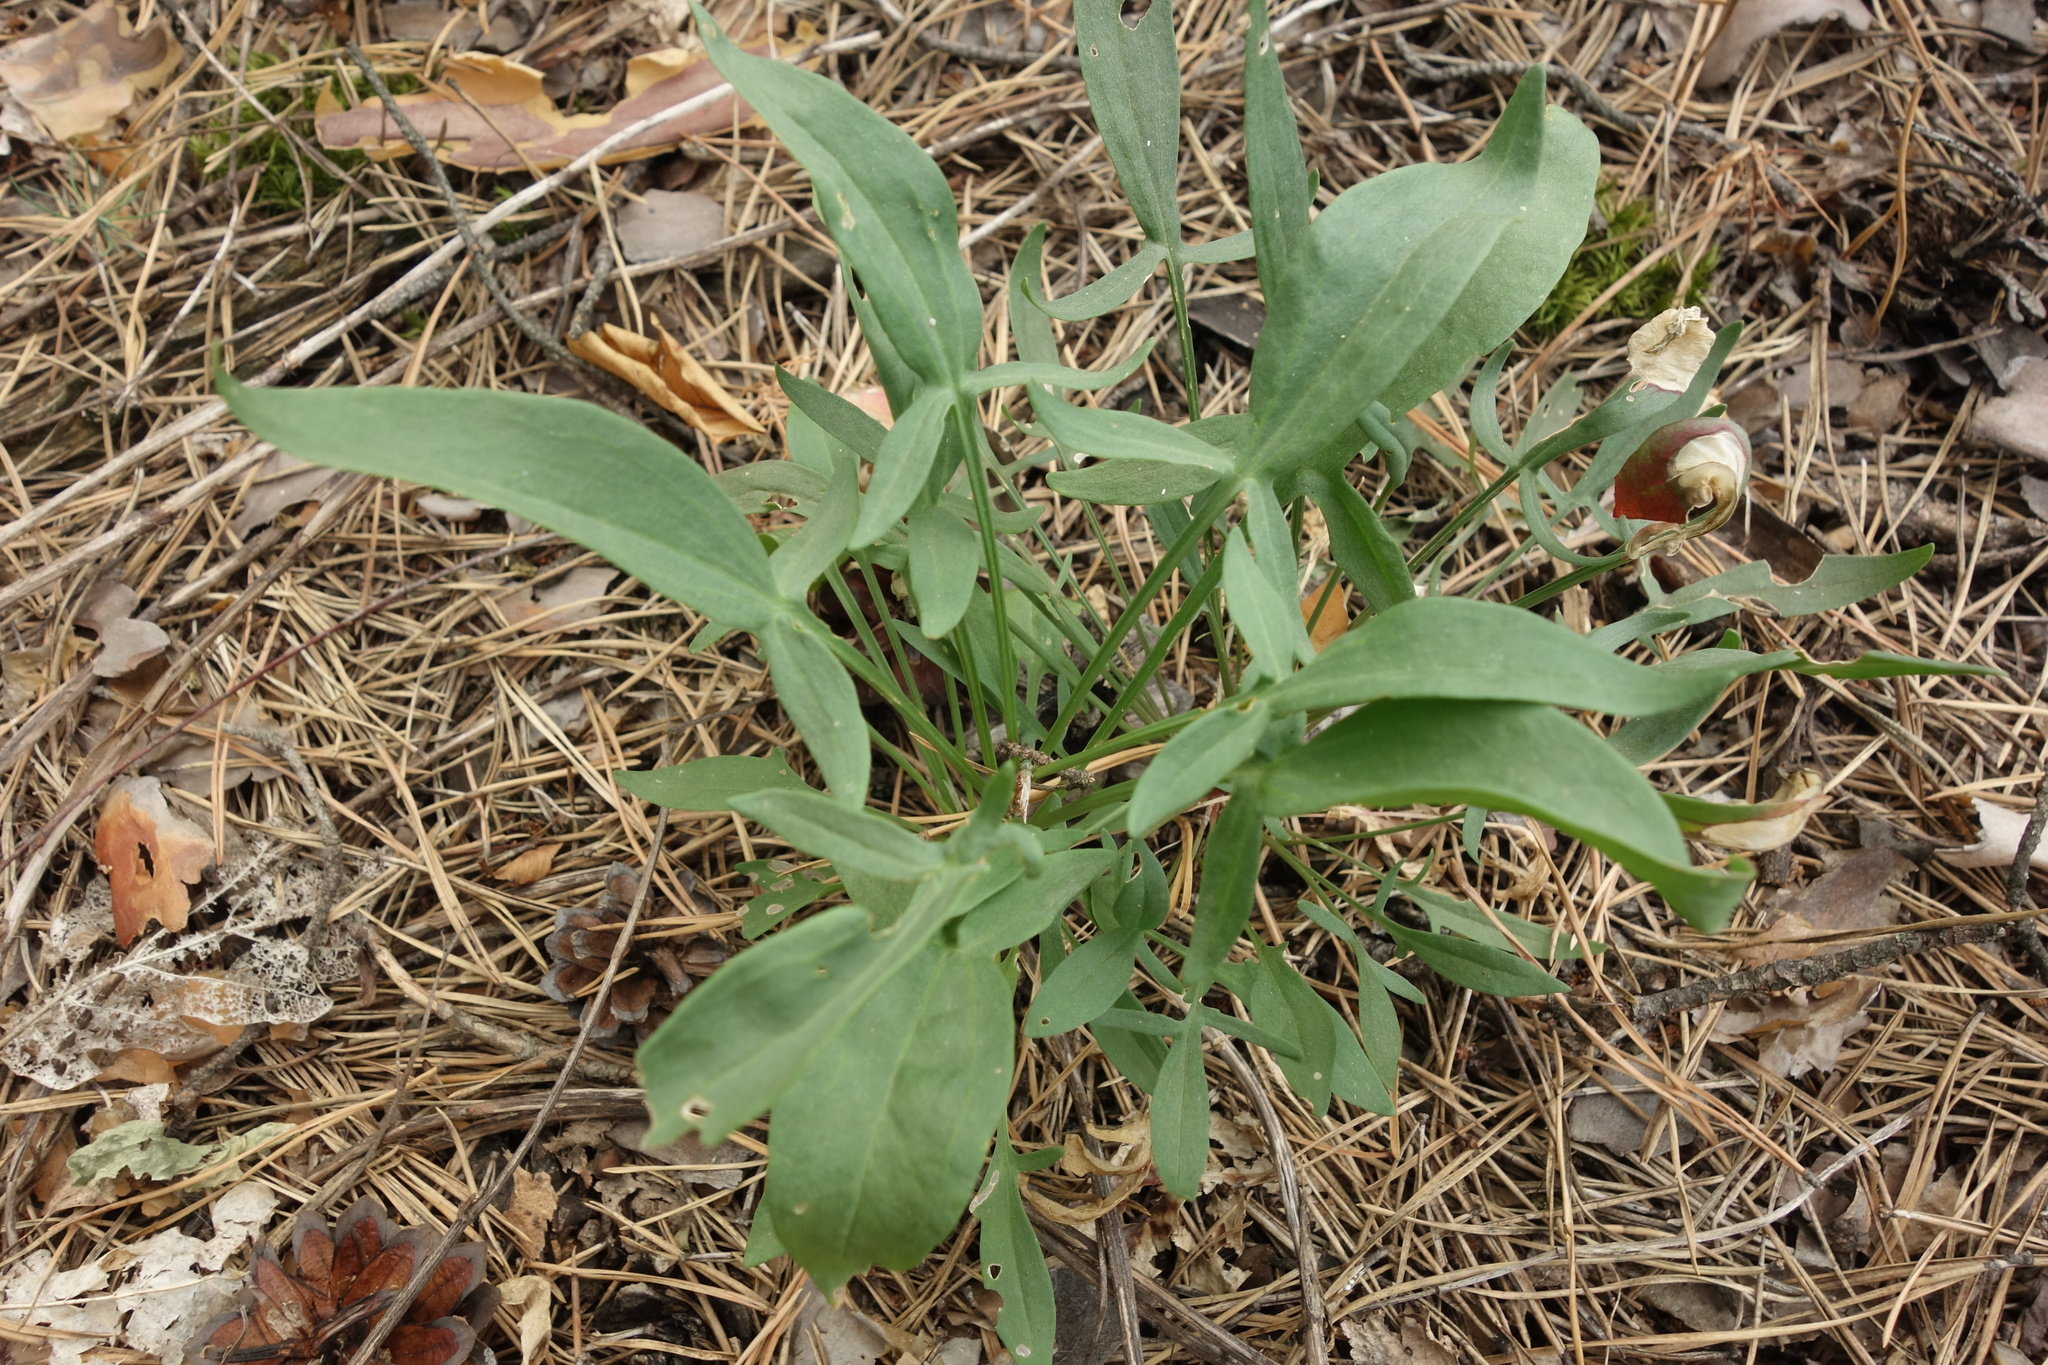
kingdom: Plantae
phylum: Tracheophyta
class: Magnoliopsida
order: Caryophyllales
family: Polygonaceae
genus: Rumex
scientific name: Rumex acetosella
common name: Common sheep sorrel
